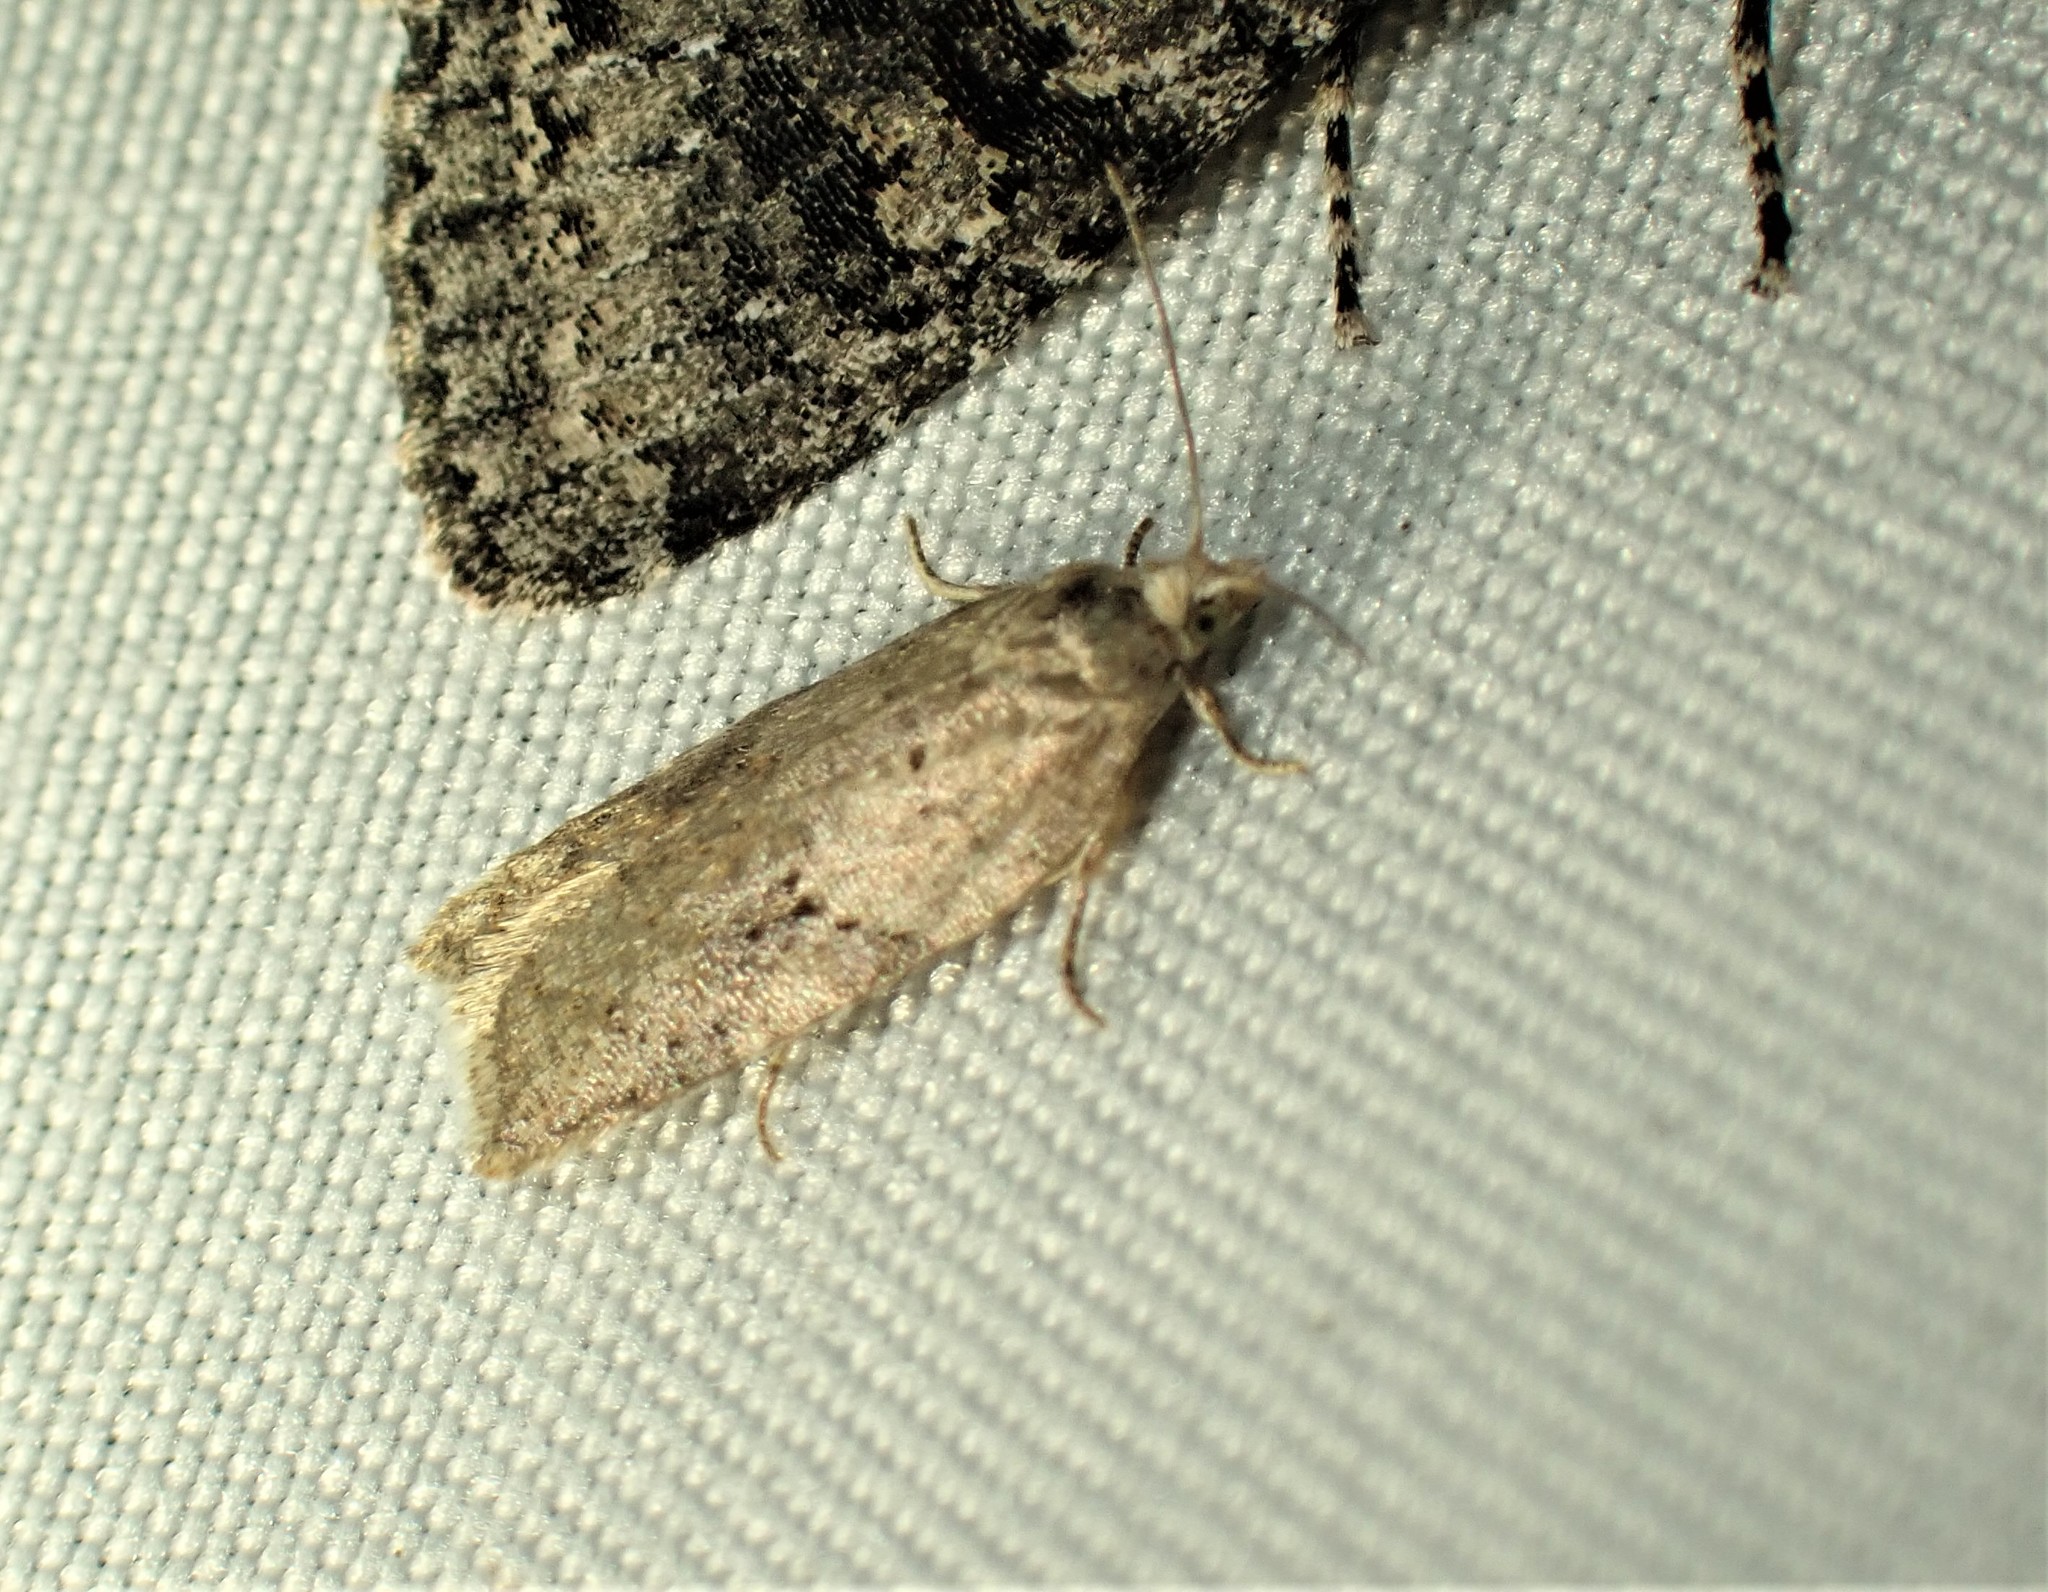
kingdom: Animalia
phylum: Arthropoda
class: Insecta
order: Lepidoptera
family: Tortricidae
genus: Acleris
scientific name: Acleris placidana
